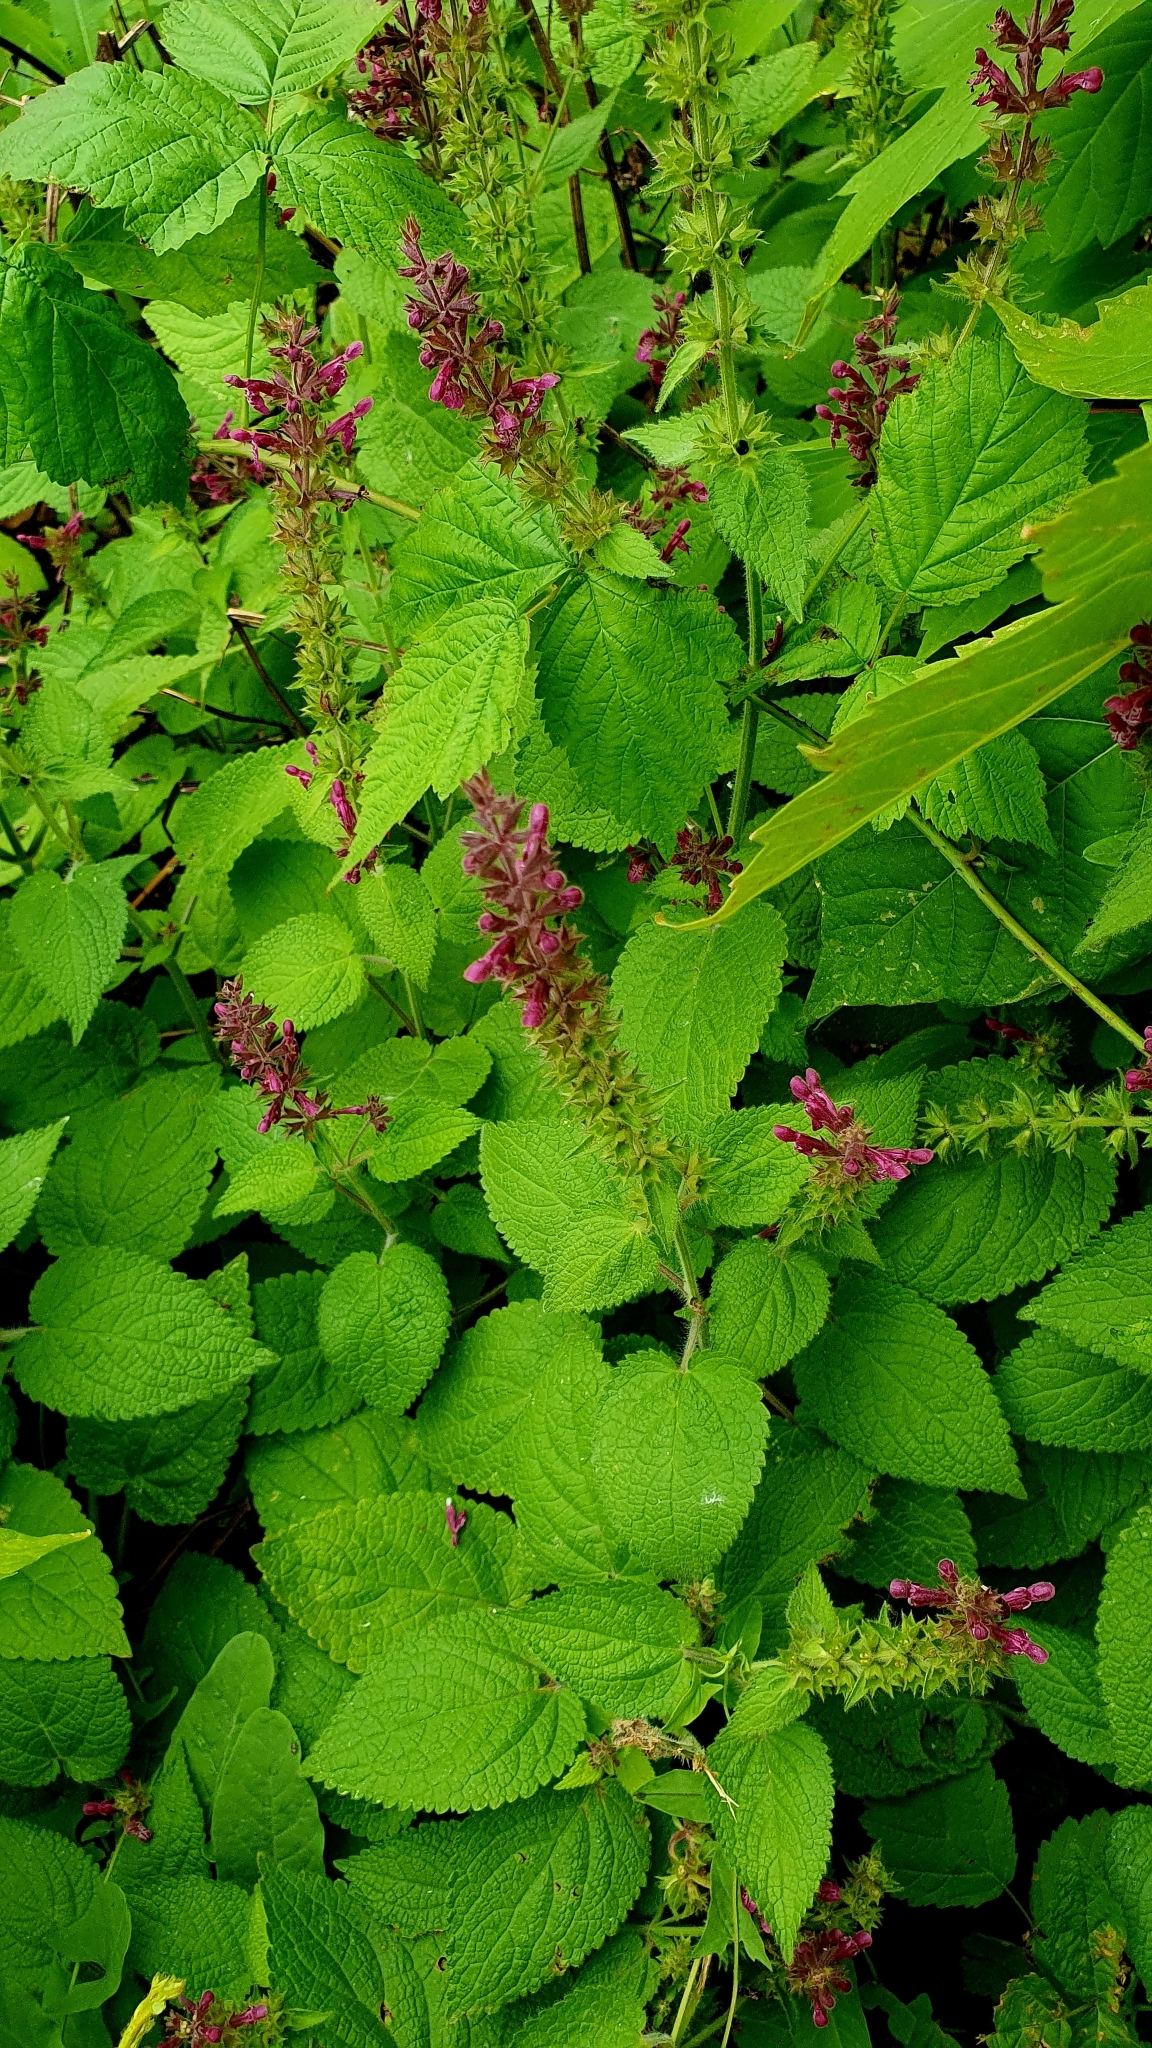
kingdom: Plantae
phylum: Tracheophyta
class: Magnoliopsida
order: Lamiales
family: Lamiaceae
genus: Stachys
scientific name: Stachys sylvatica
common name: Hedge woundwort
